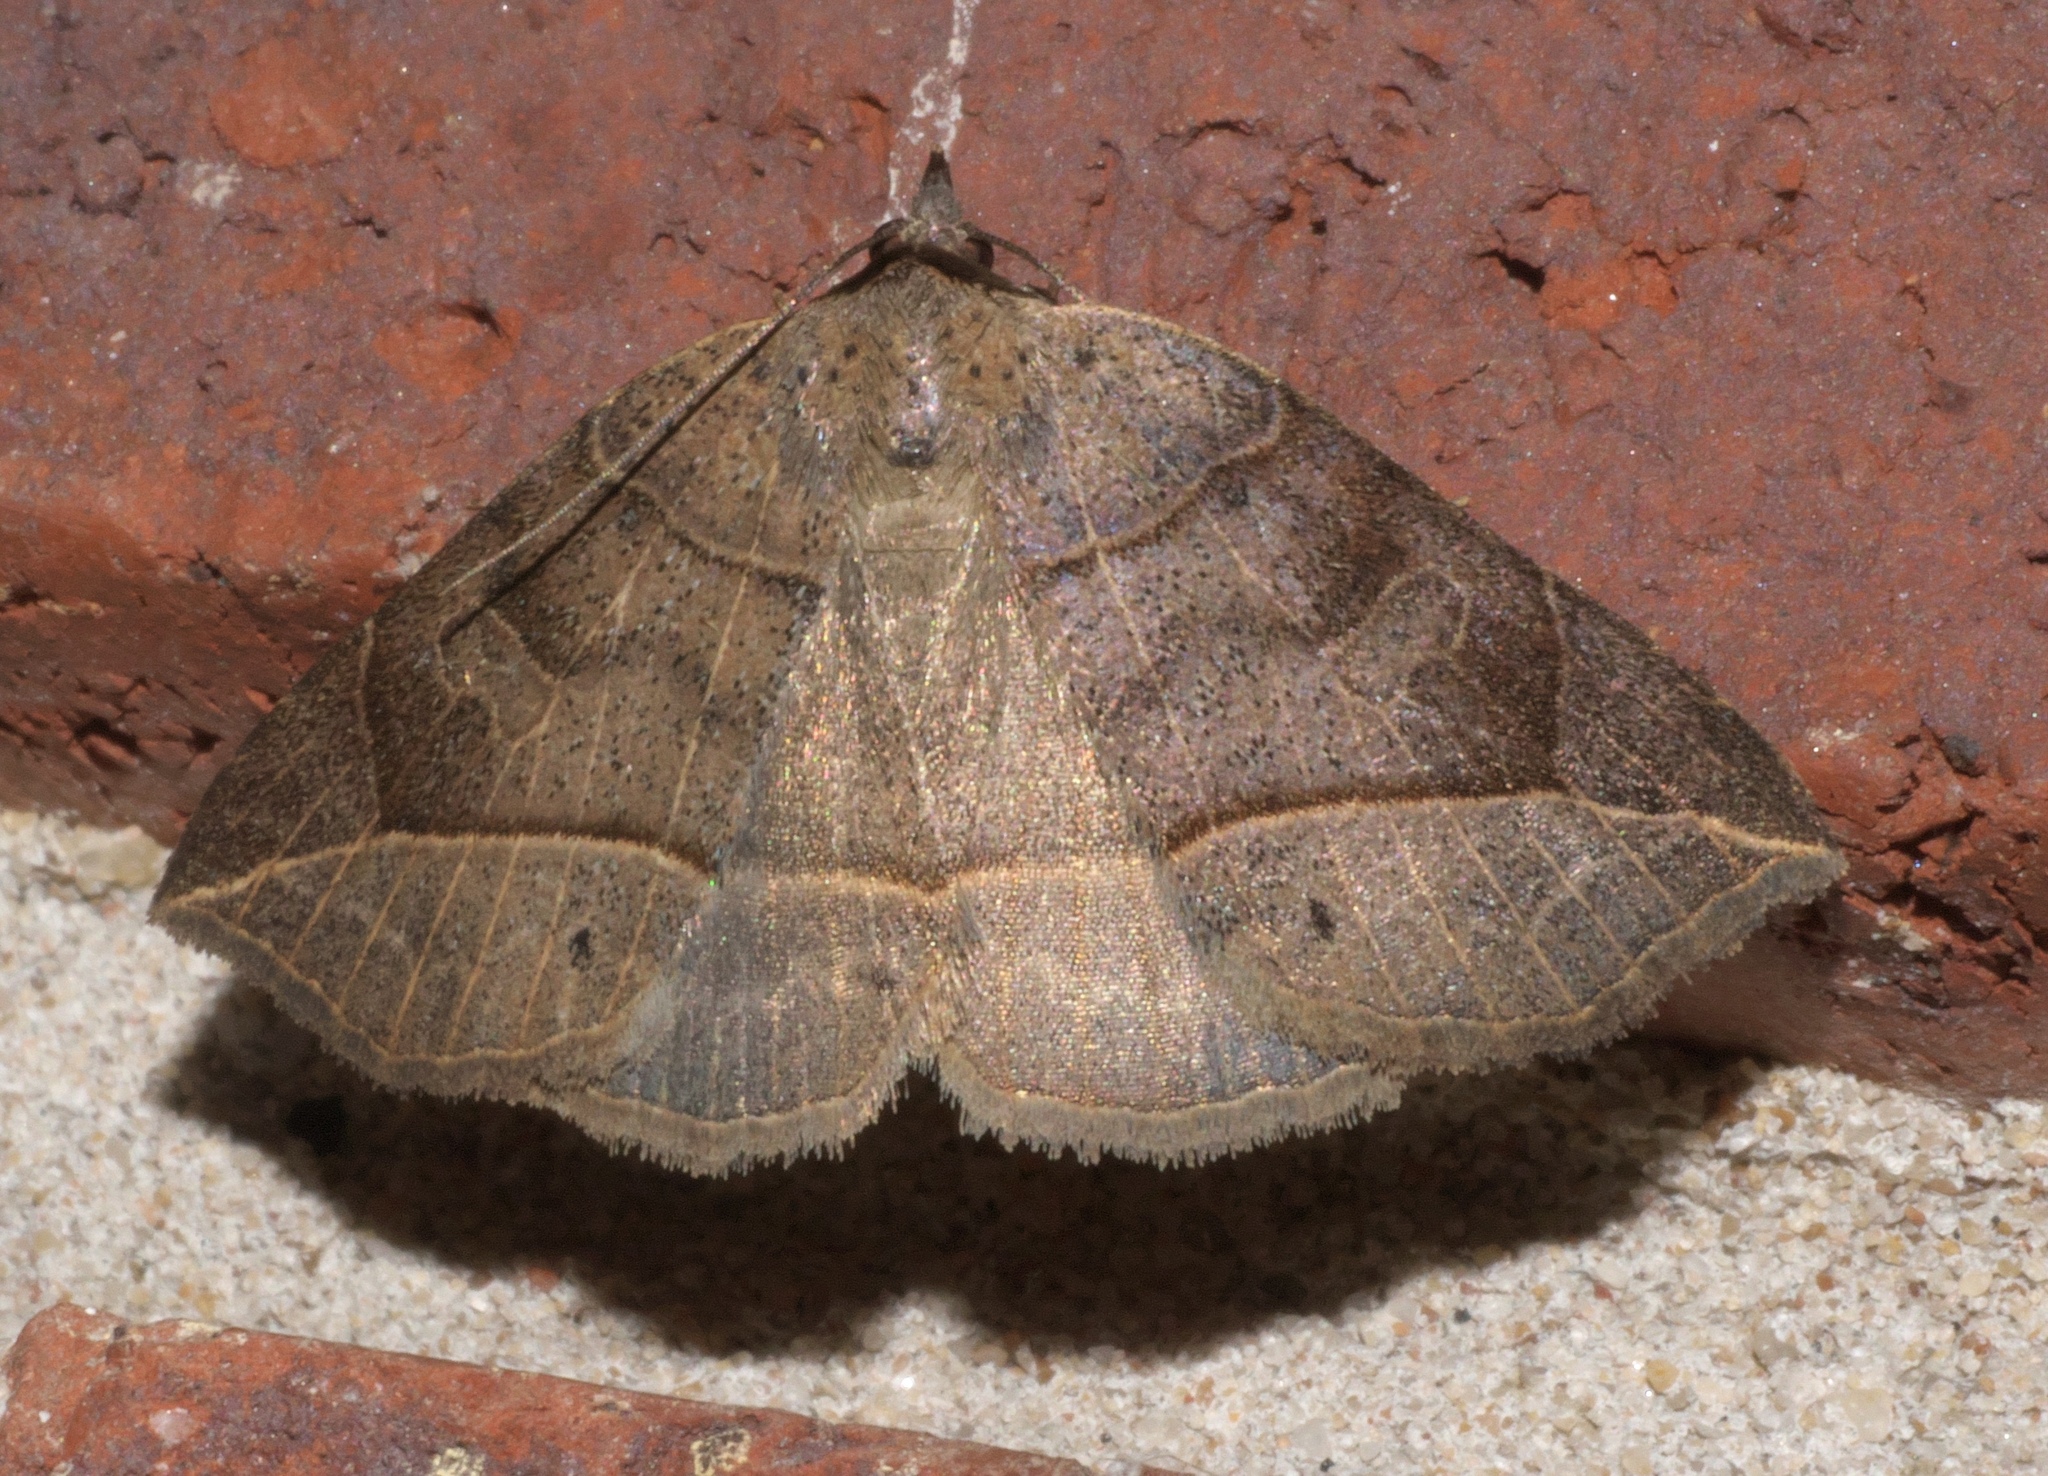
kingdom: Animalia
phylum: Arthropoda
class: Insecta
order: Lepidoptera
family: Erebidae
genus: Isogona
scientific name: Isogona tenuis
